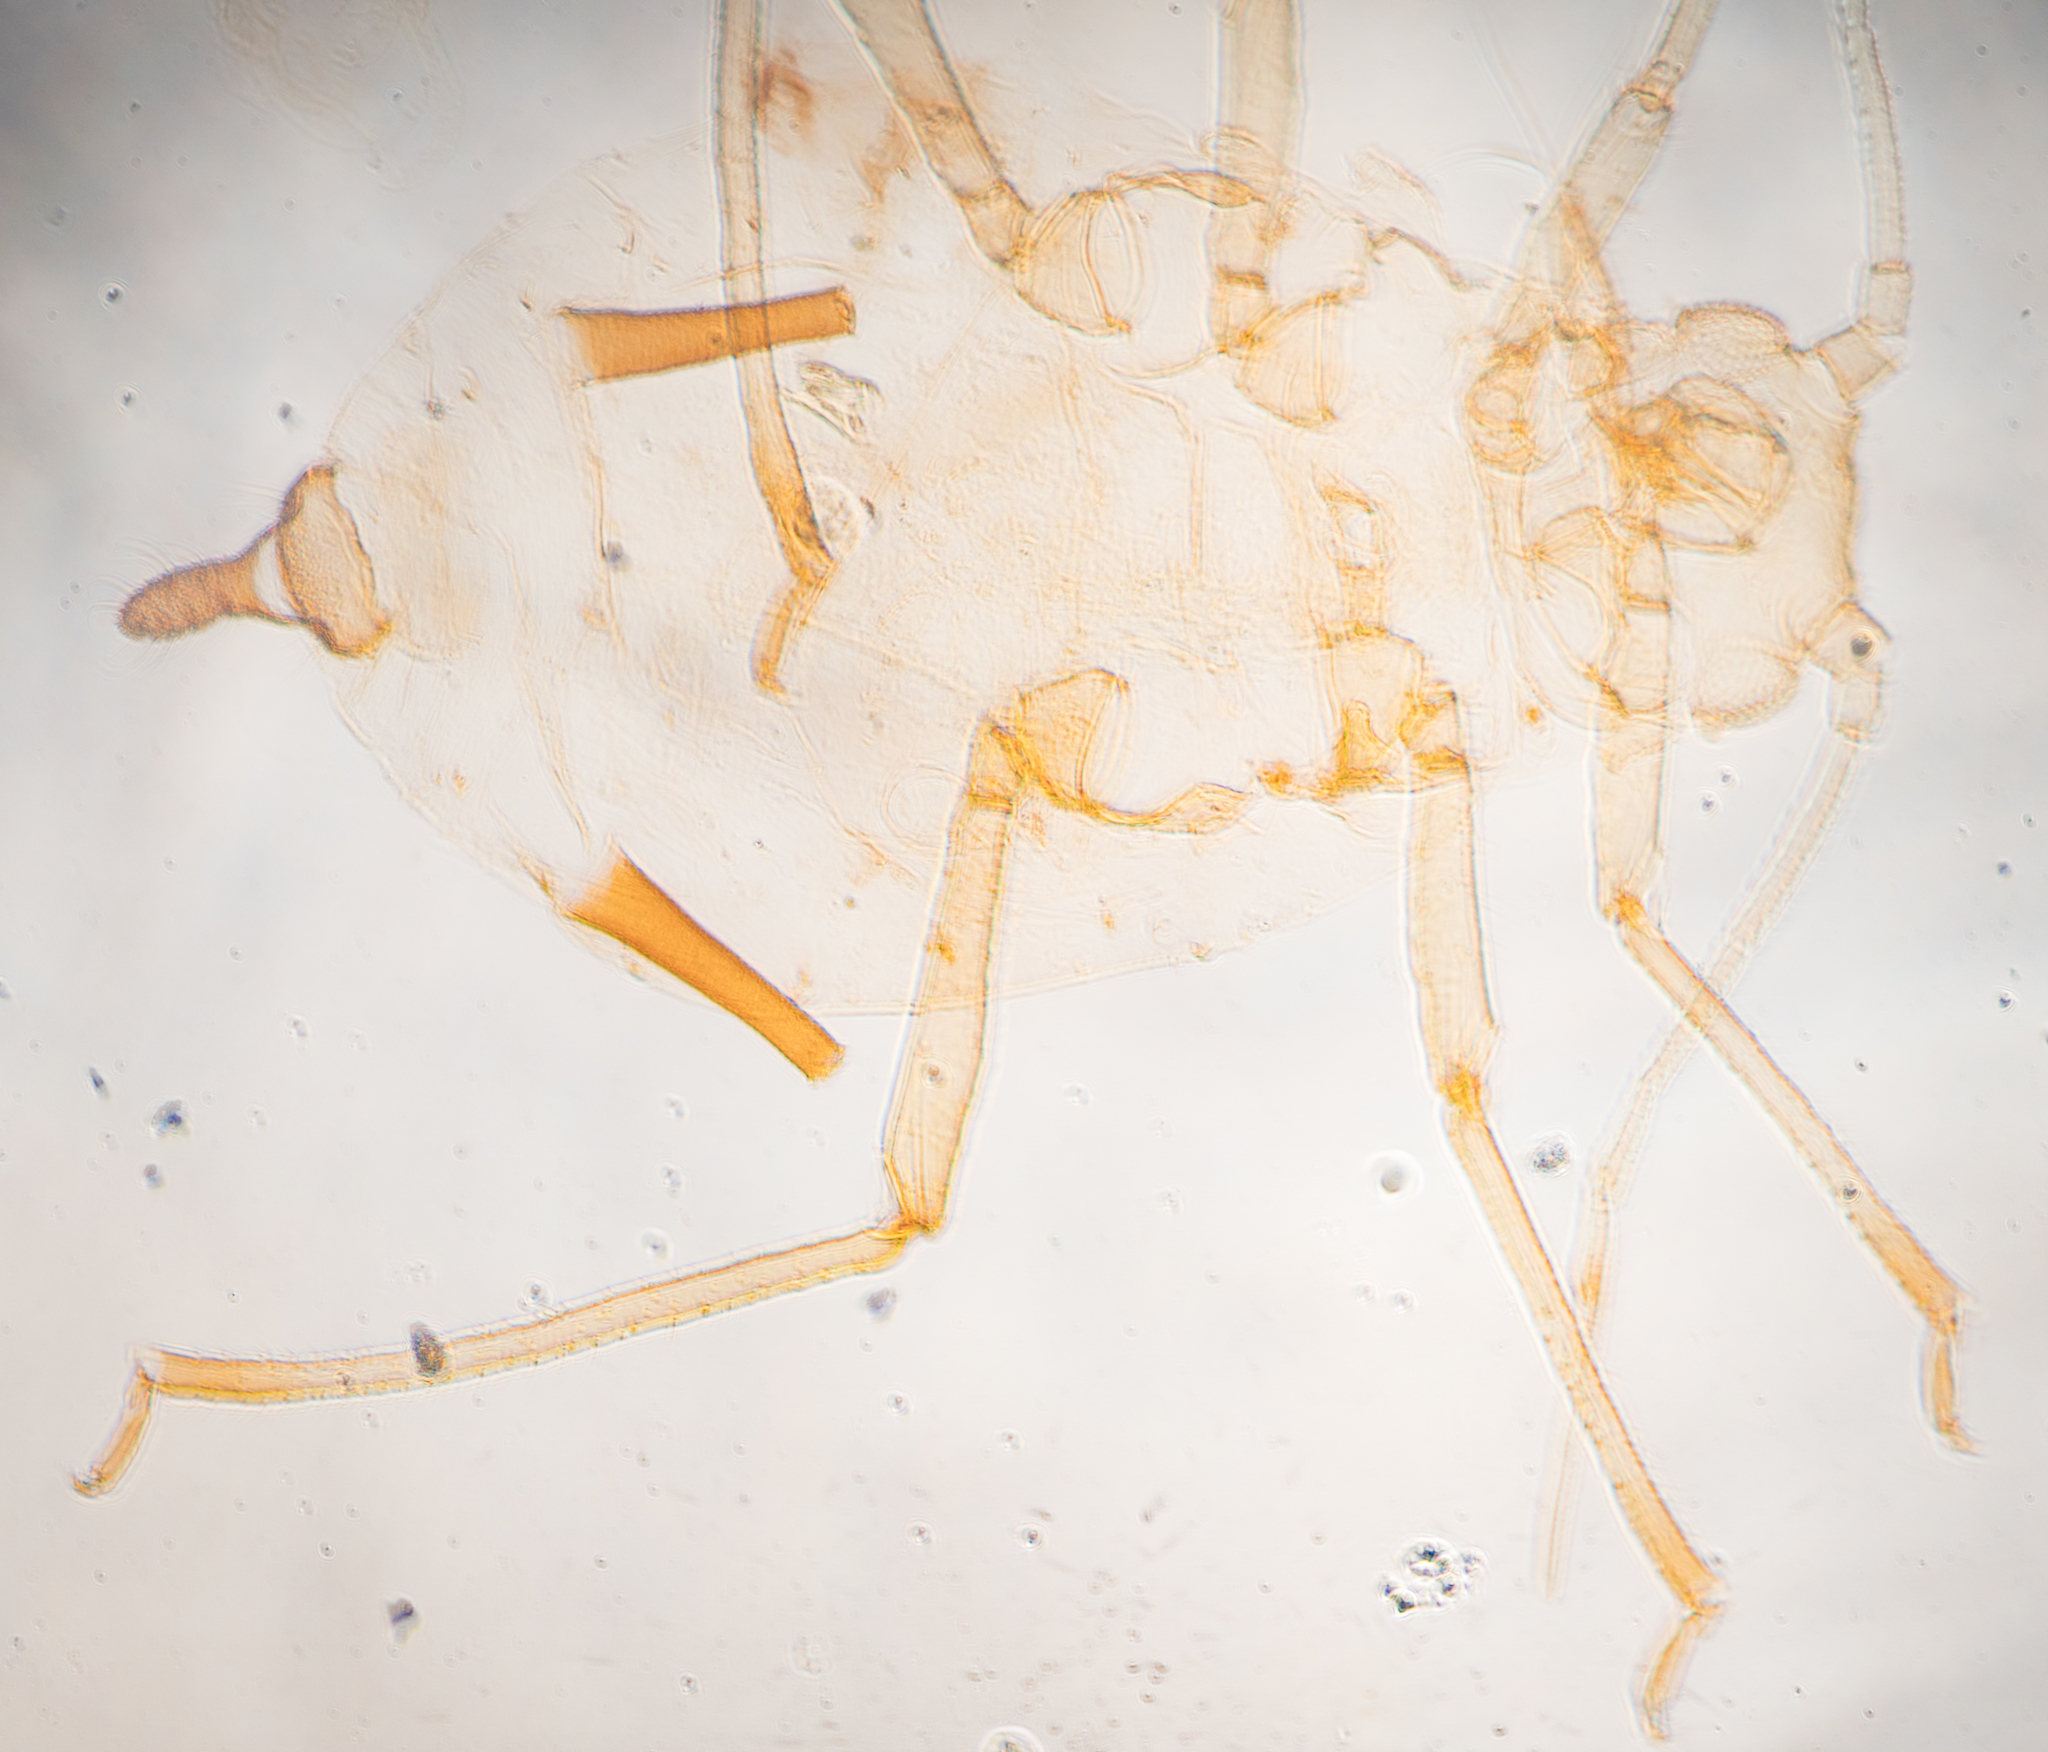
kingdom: Animalia
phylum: Arthropoda
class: Insecta
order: Hemiptera
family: Aphididae
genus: Aphis
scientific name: Aphis spiraecola
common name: Spirea aphid
